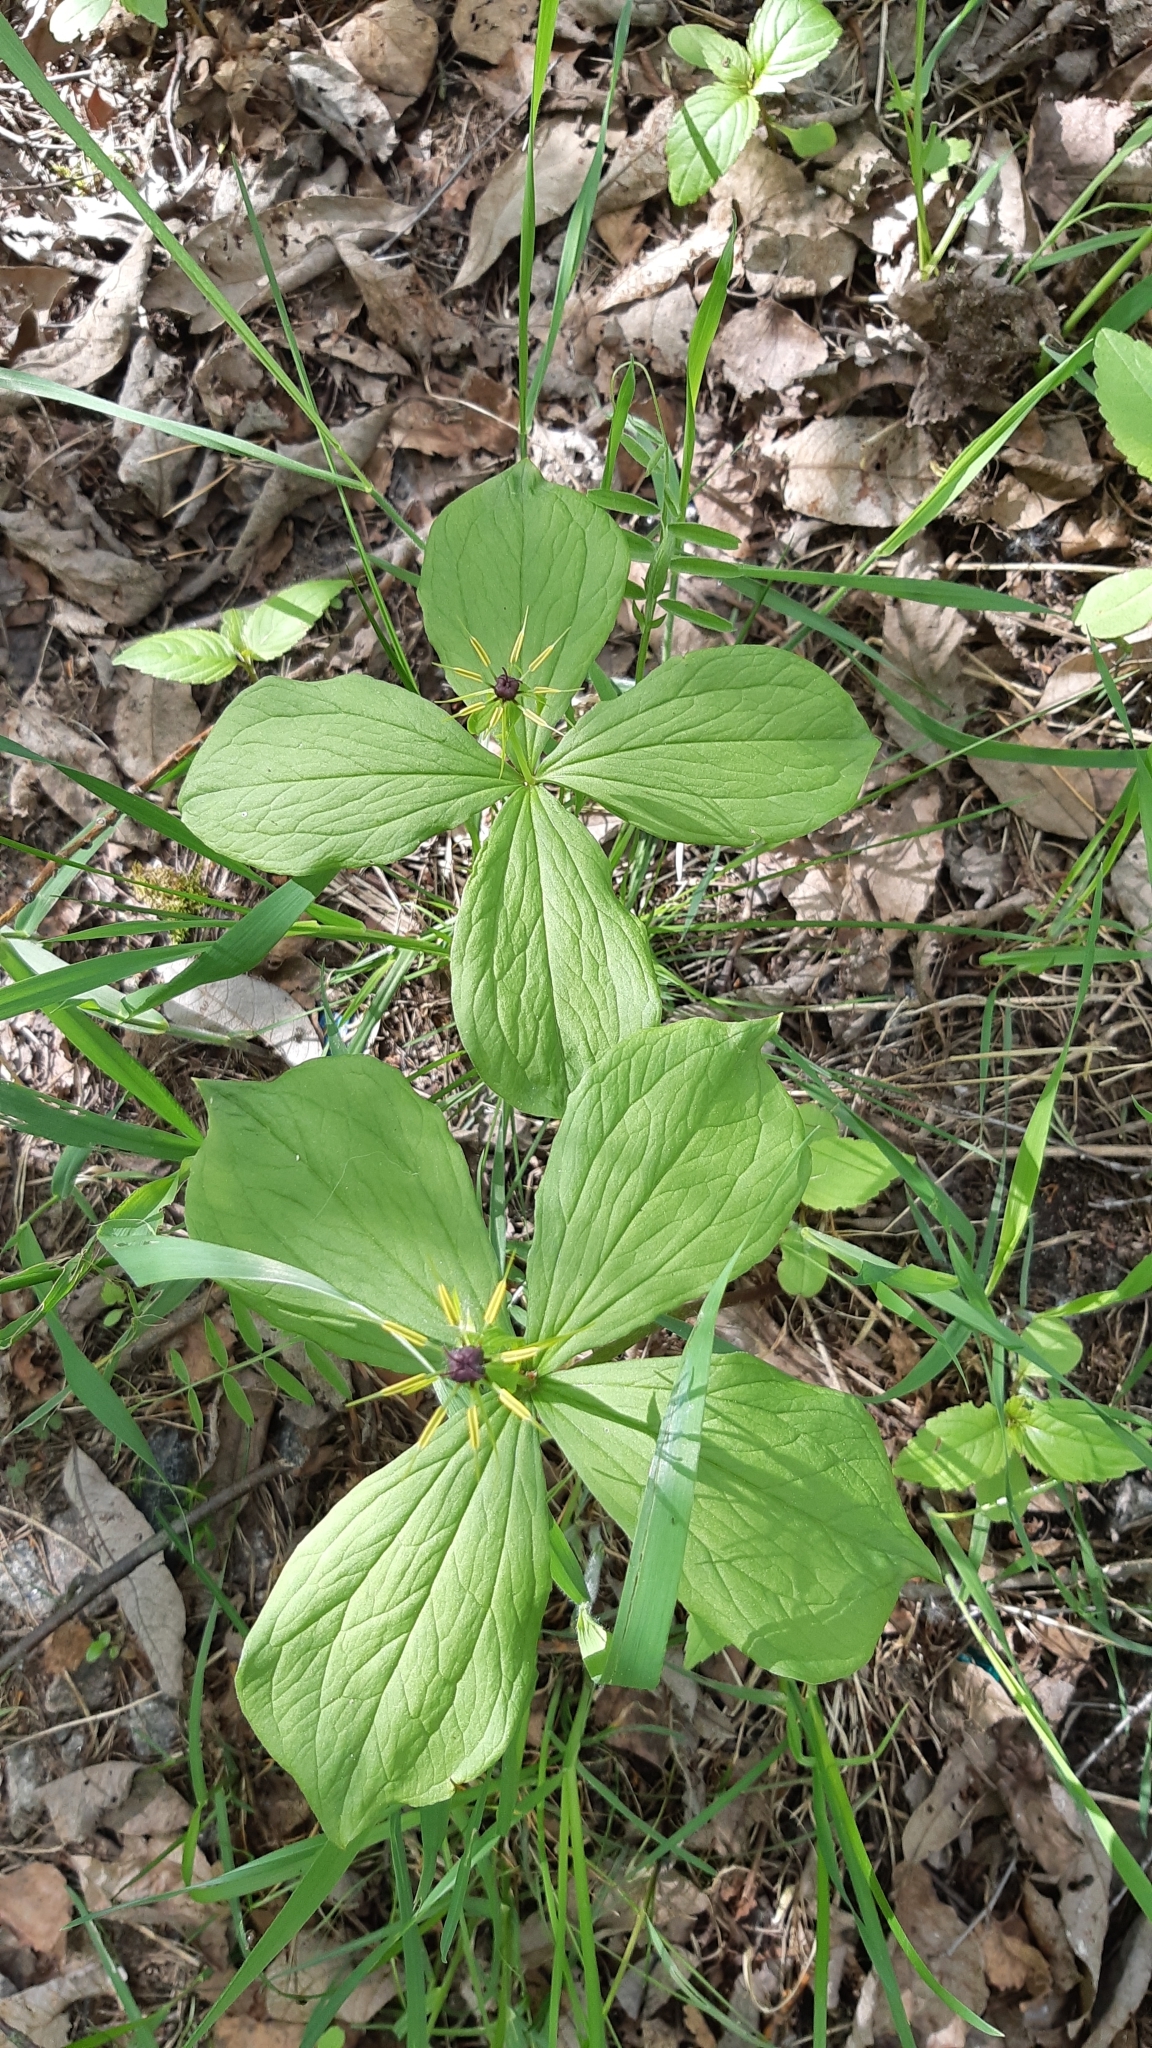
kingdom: Plantae
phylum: Tracheophyta
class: Liliopsida
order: Liliales
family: Melanthiaceae
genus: Paris
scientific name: Paris quadrifolia
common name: Herb-paris
